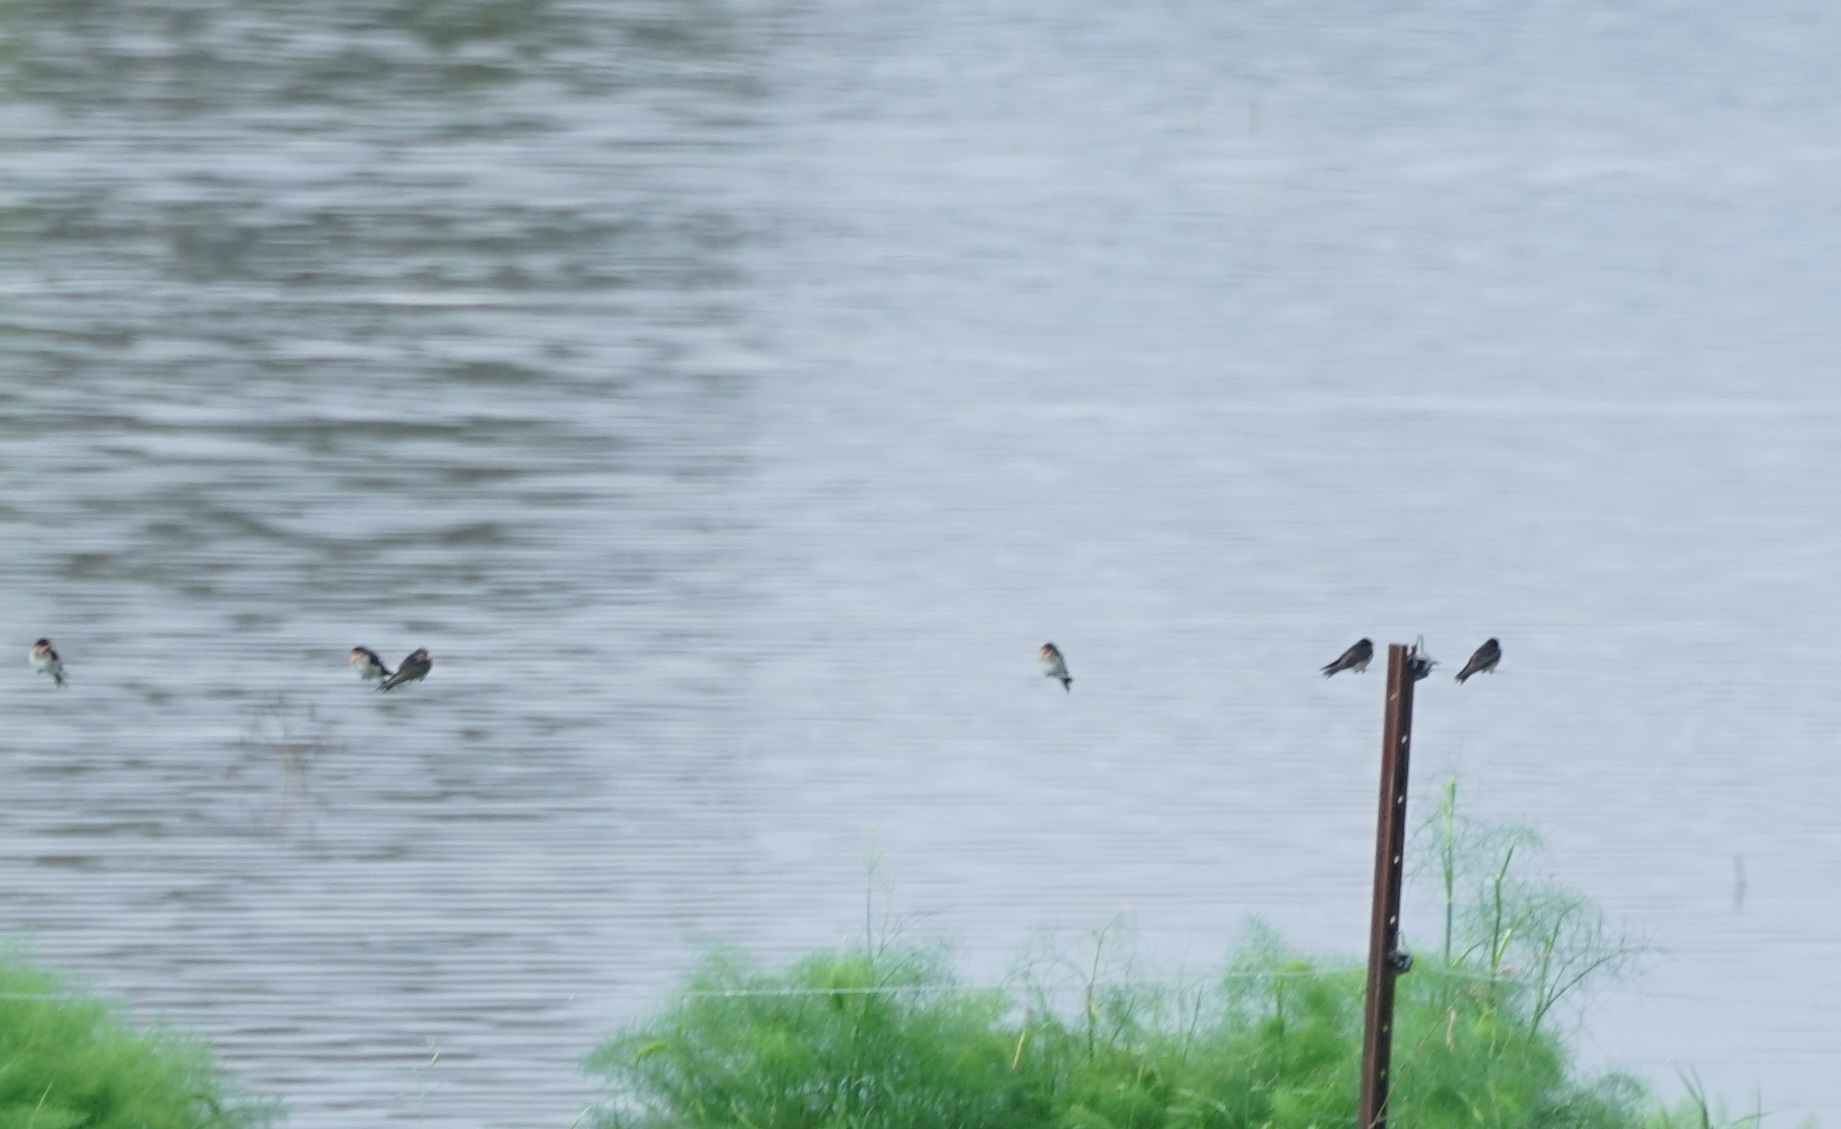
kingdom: Animalia
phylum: Chordata
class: Aves
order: Passeriformes
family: Hirundinidae
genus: Hirundo
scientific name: Hirundo neoxena
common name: Welcome swallow
